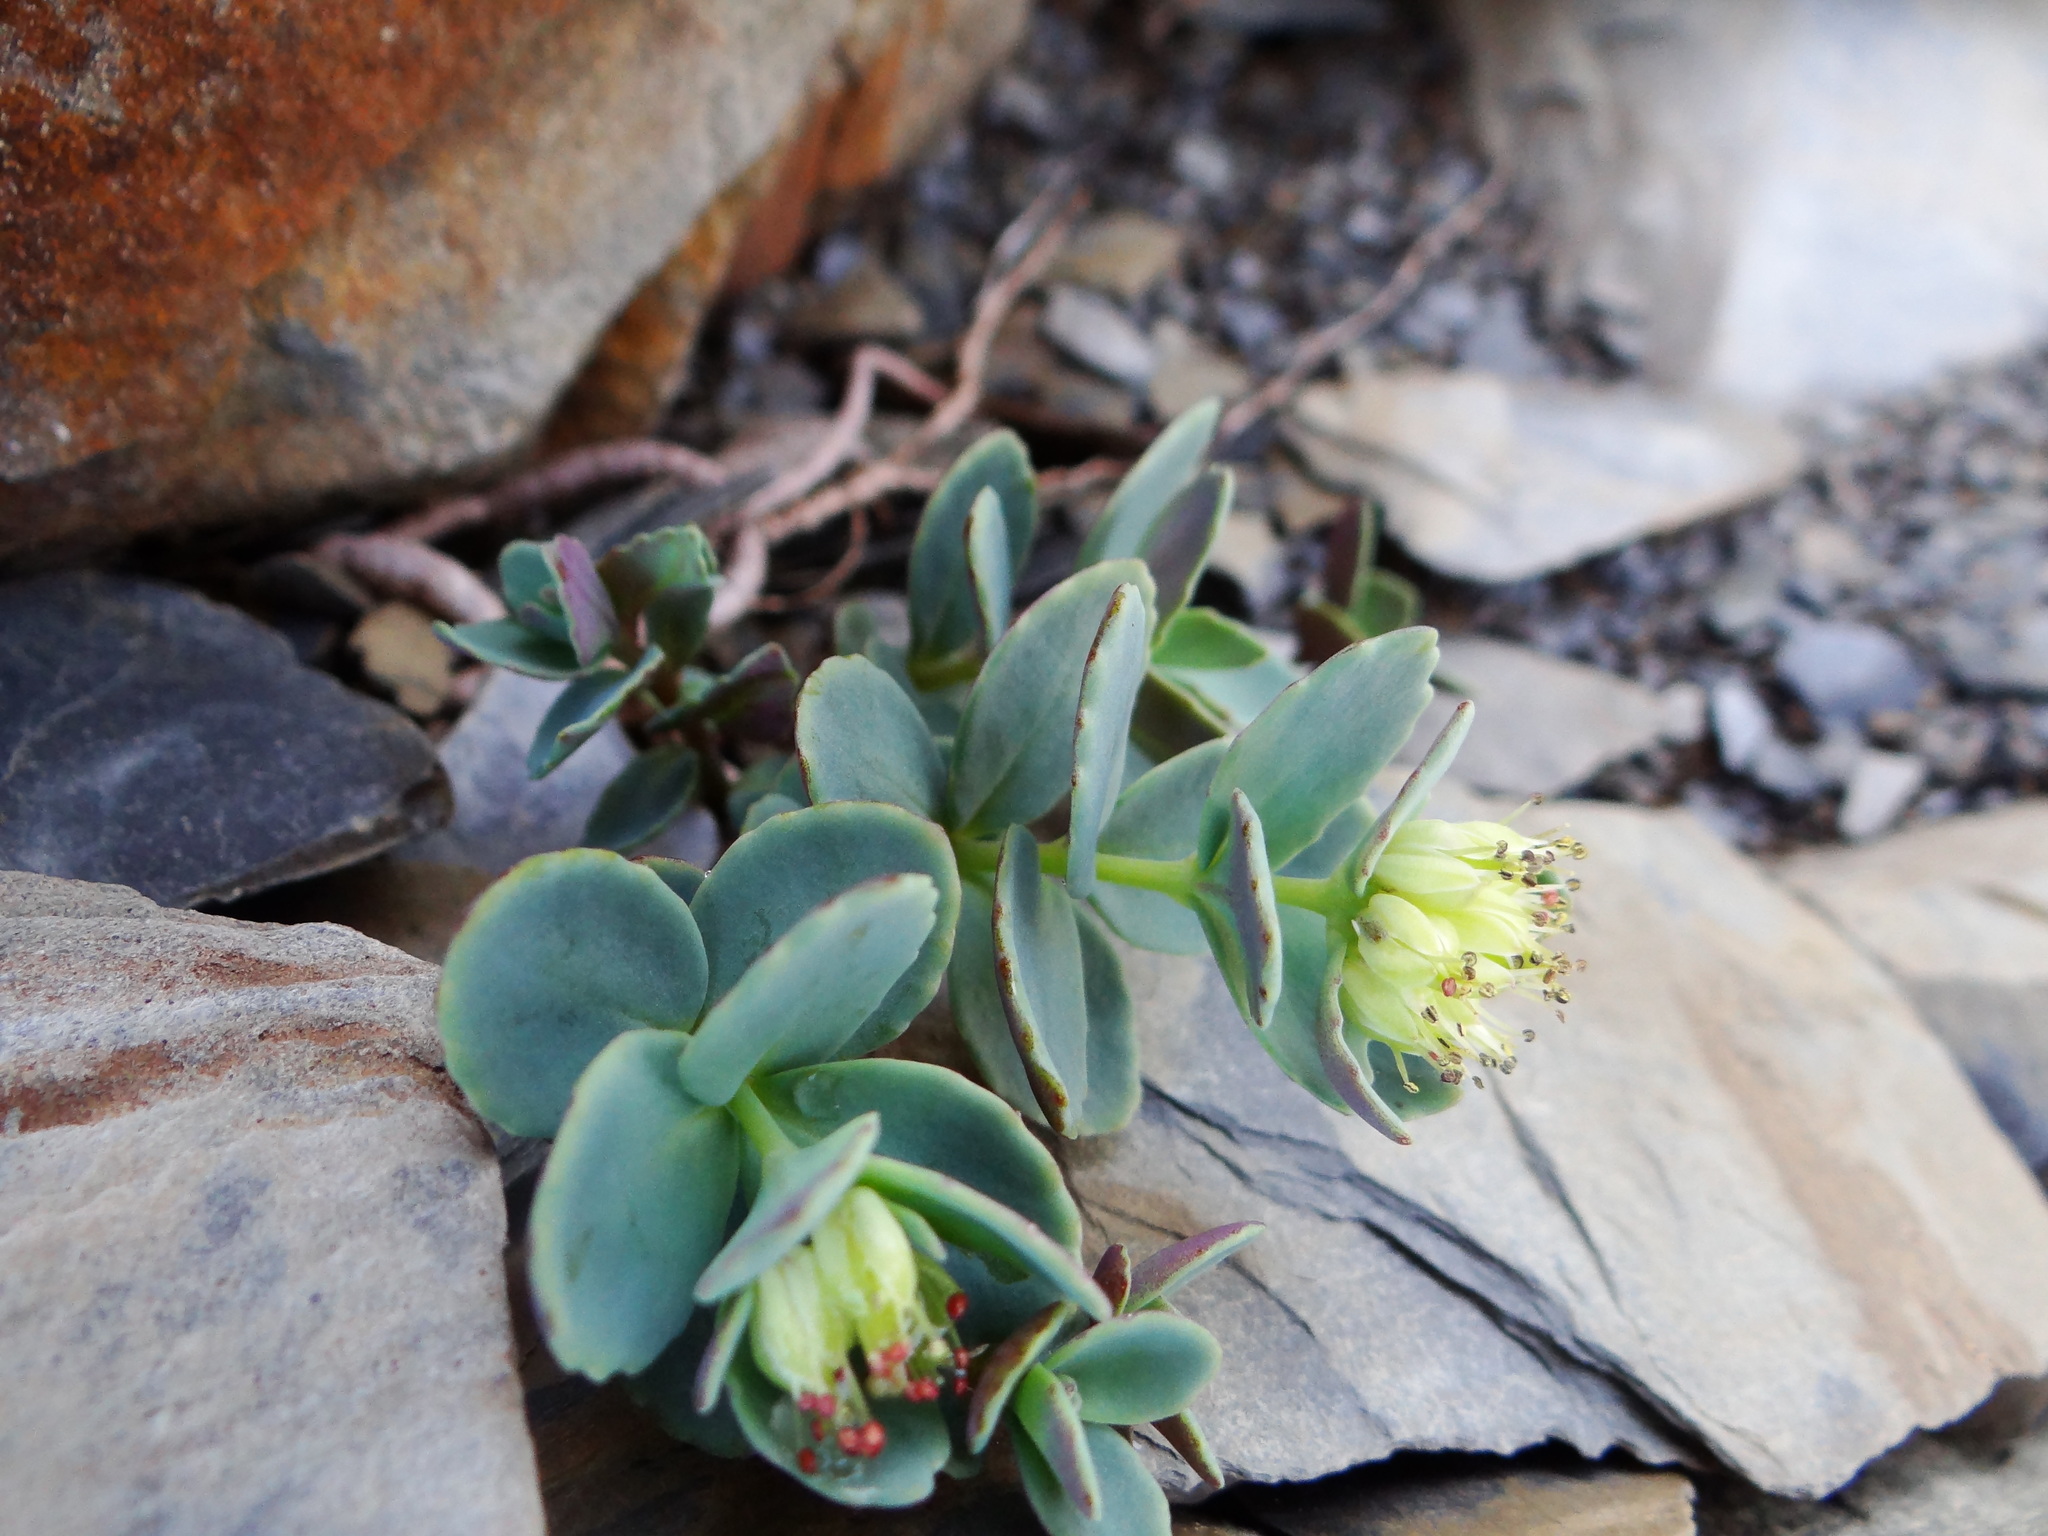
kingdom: Plantae
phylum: Tracheophyta
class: Magnoliopsida
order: Saxifragales
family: Crassulaceae
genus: Phedimus
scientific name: Phedimus subcapitatus
